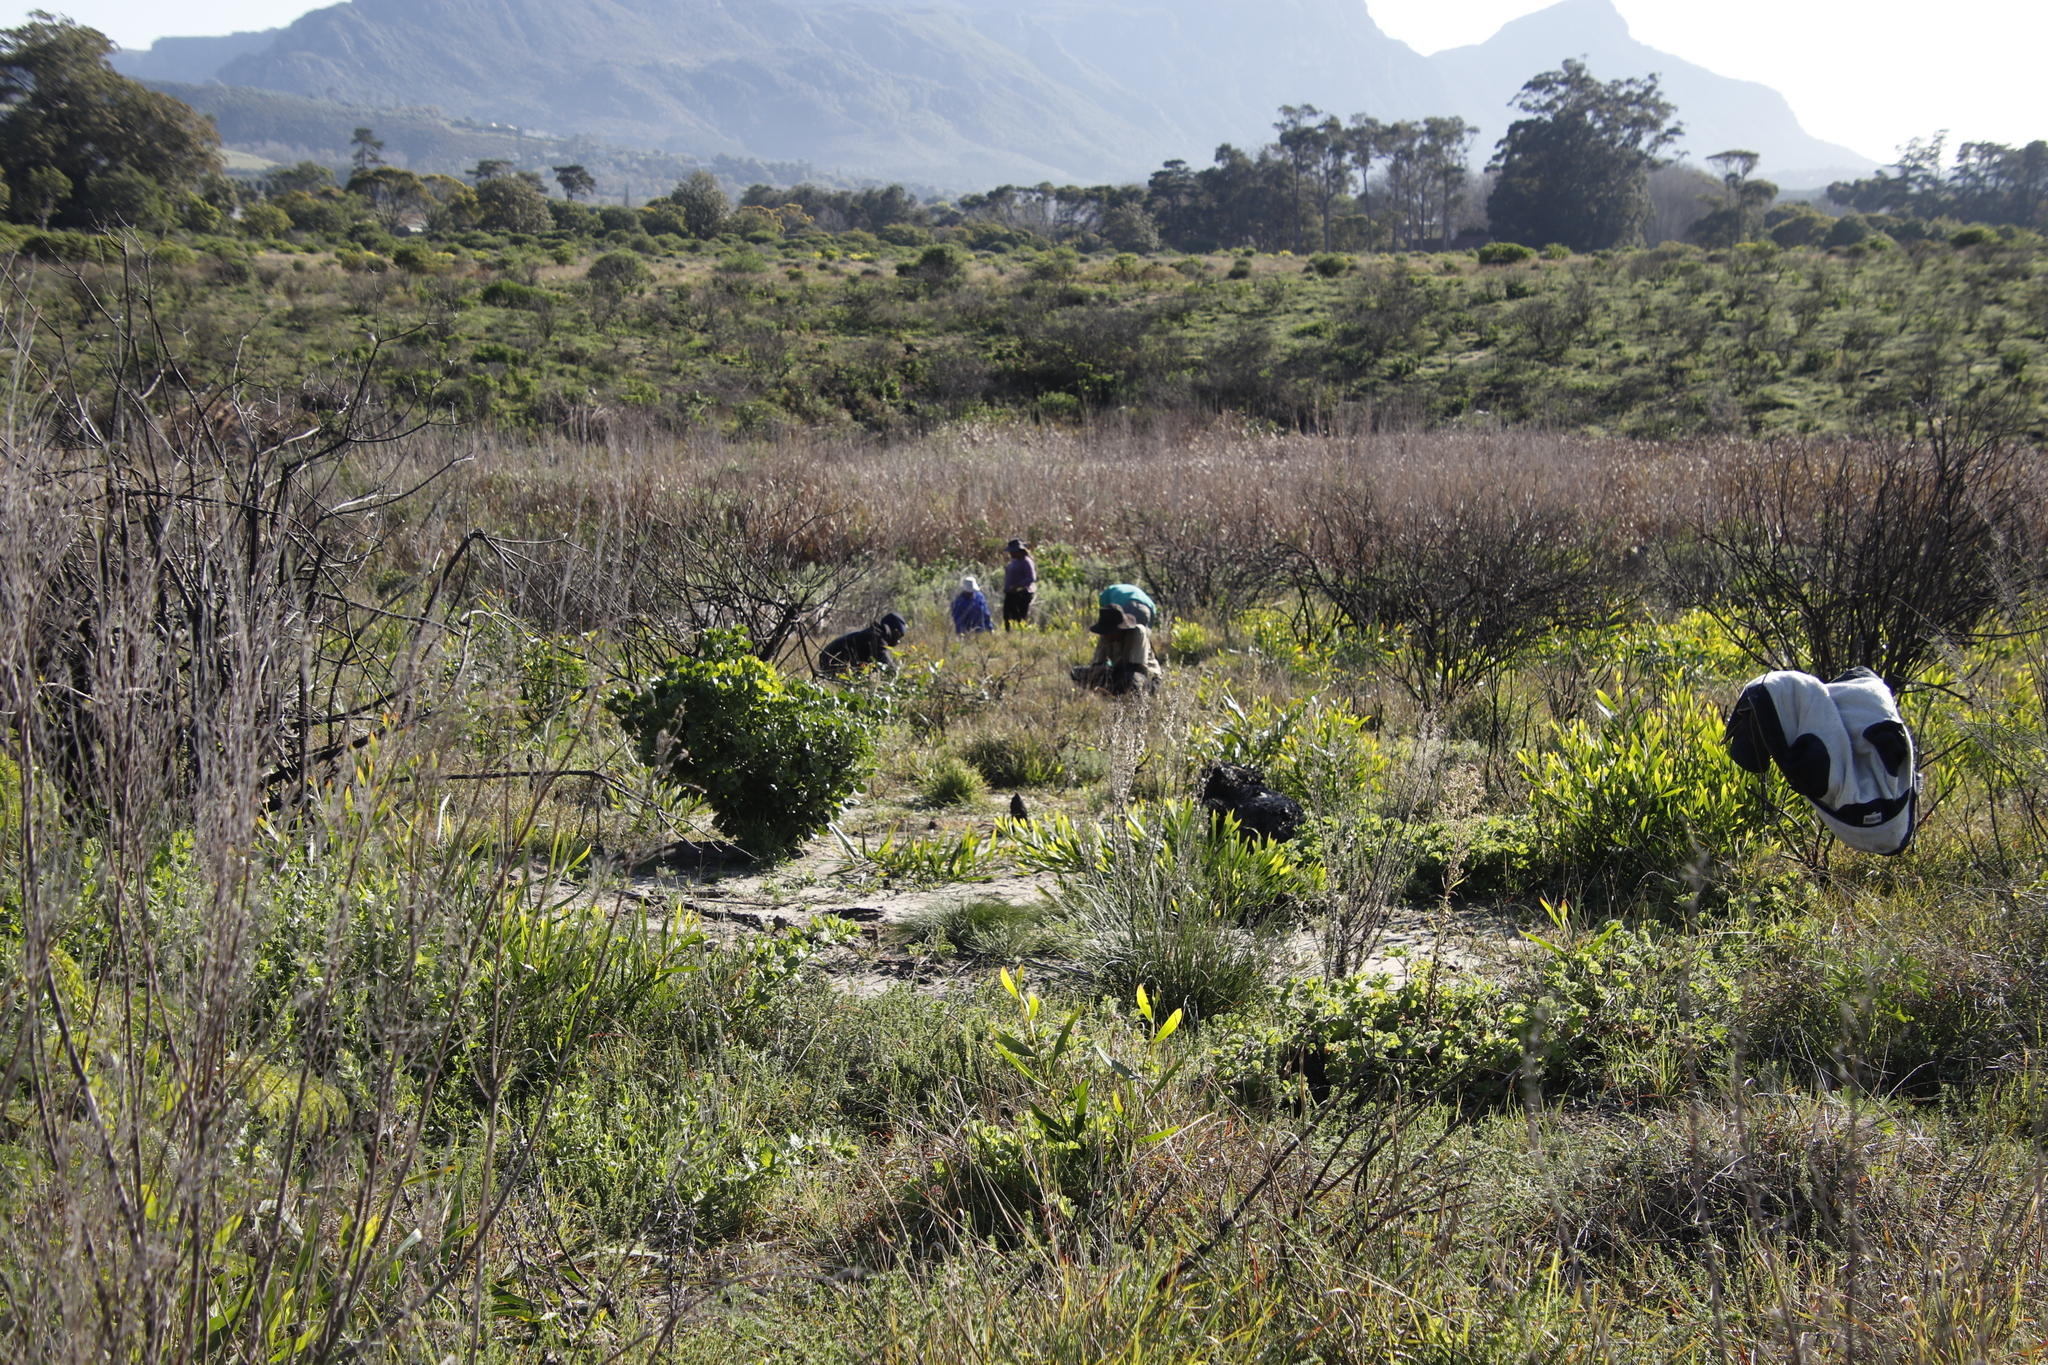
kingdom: Plantae
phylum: Tracheophyta
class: Magnoliopsida
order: Fabales
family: Fabaceae
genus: Acacia
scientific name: Acacia saligna
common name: Orange wattle
